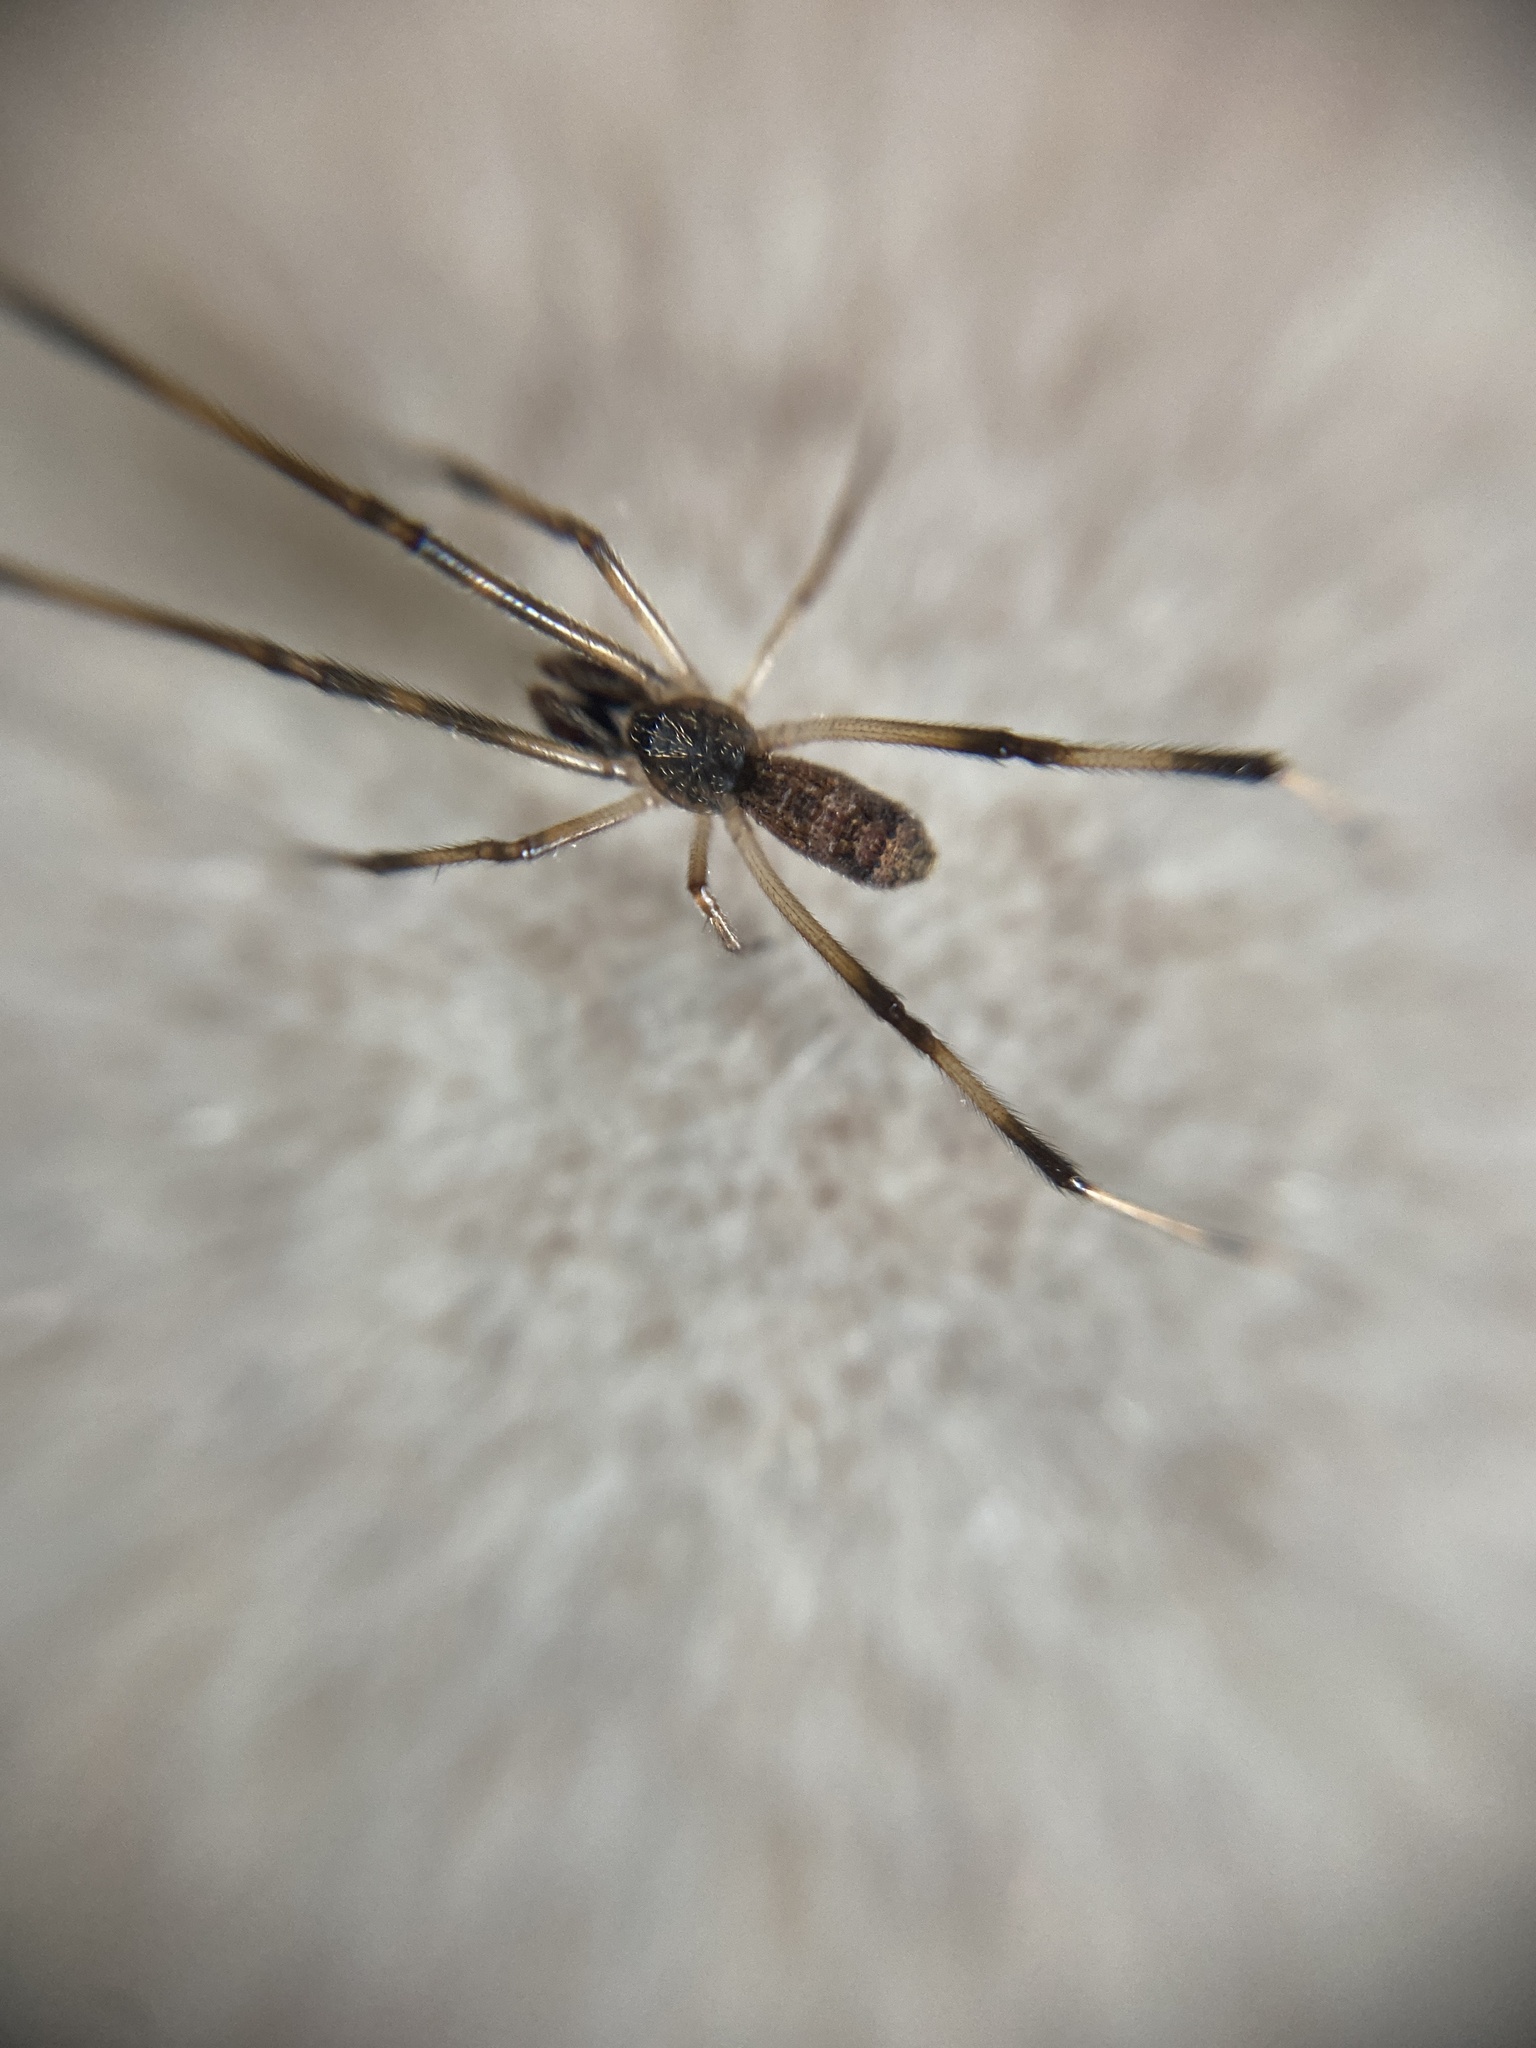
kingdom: Animalia
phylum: Arthropoda
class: Arachnida
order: Araneae
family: Theridiidae
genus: Episinus
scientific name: Episinus angulatus
